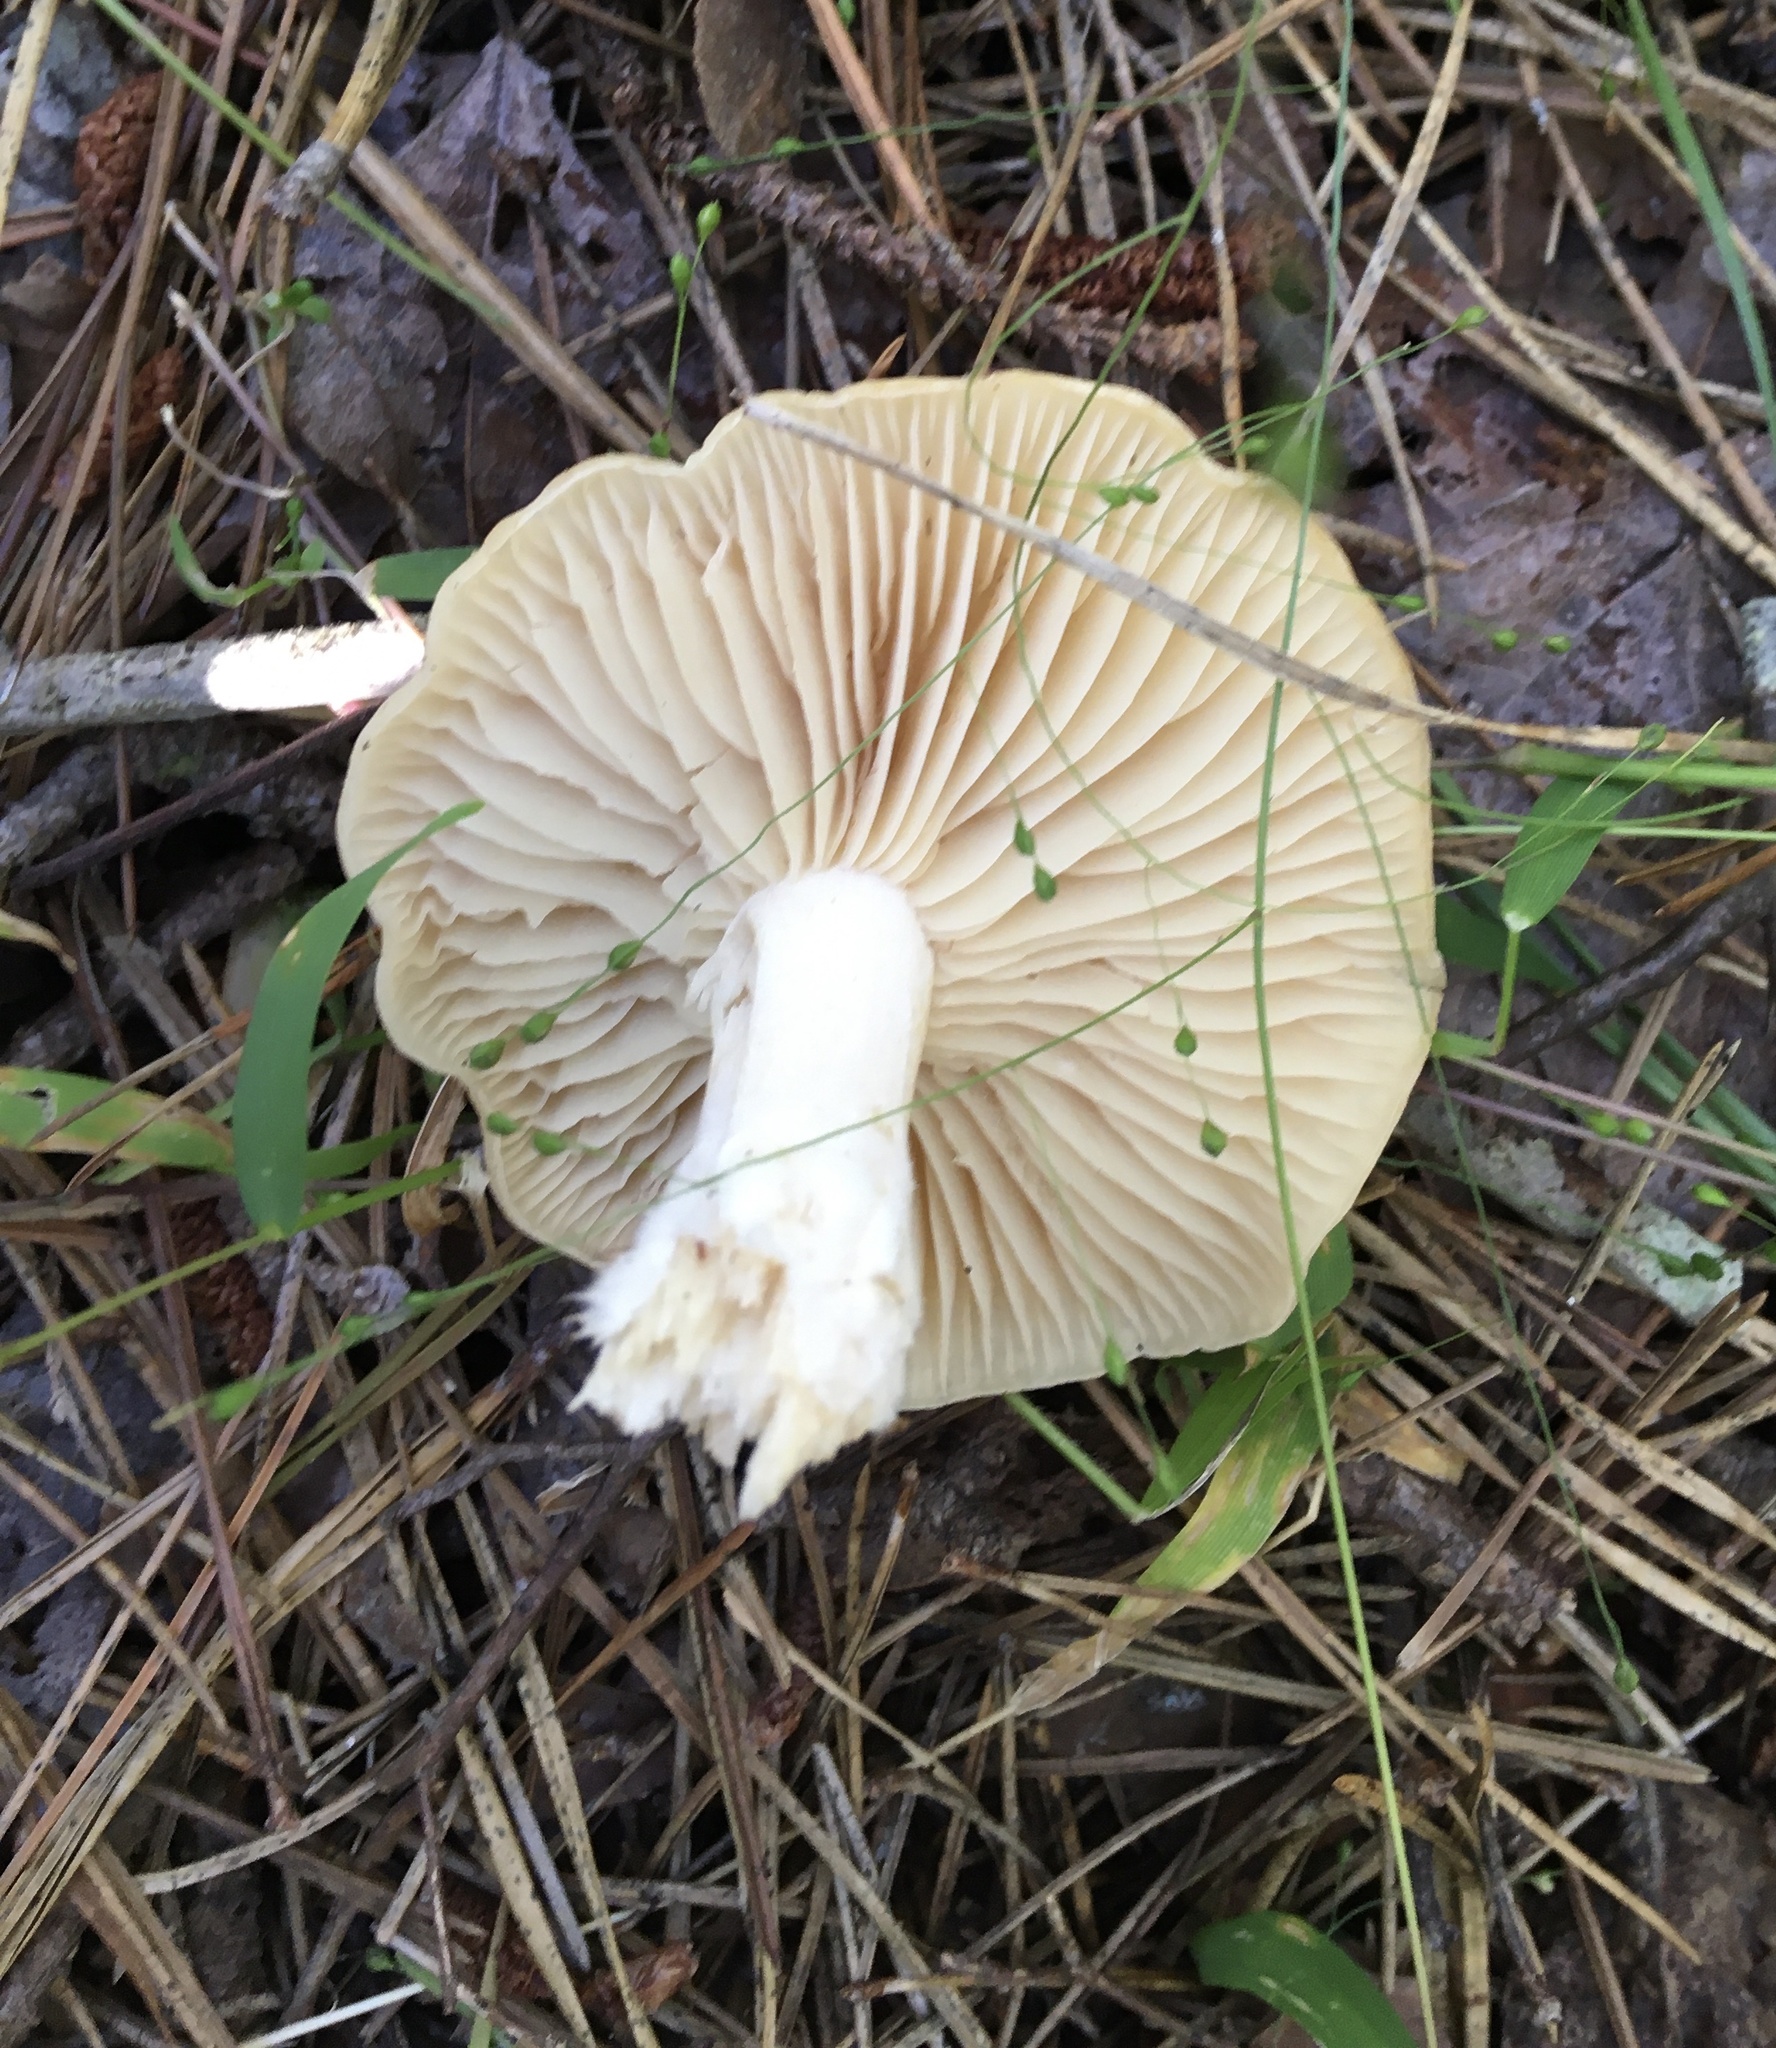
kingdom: Fungi
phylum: Basidiomycota
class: Agaricomycetes
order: Agaricales
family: Lyophyllaceae
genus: Gerhardtia
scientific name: Gerhardtia highlandensis
